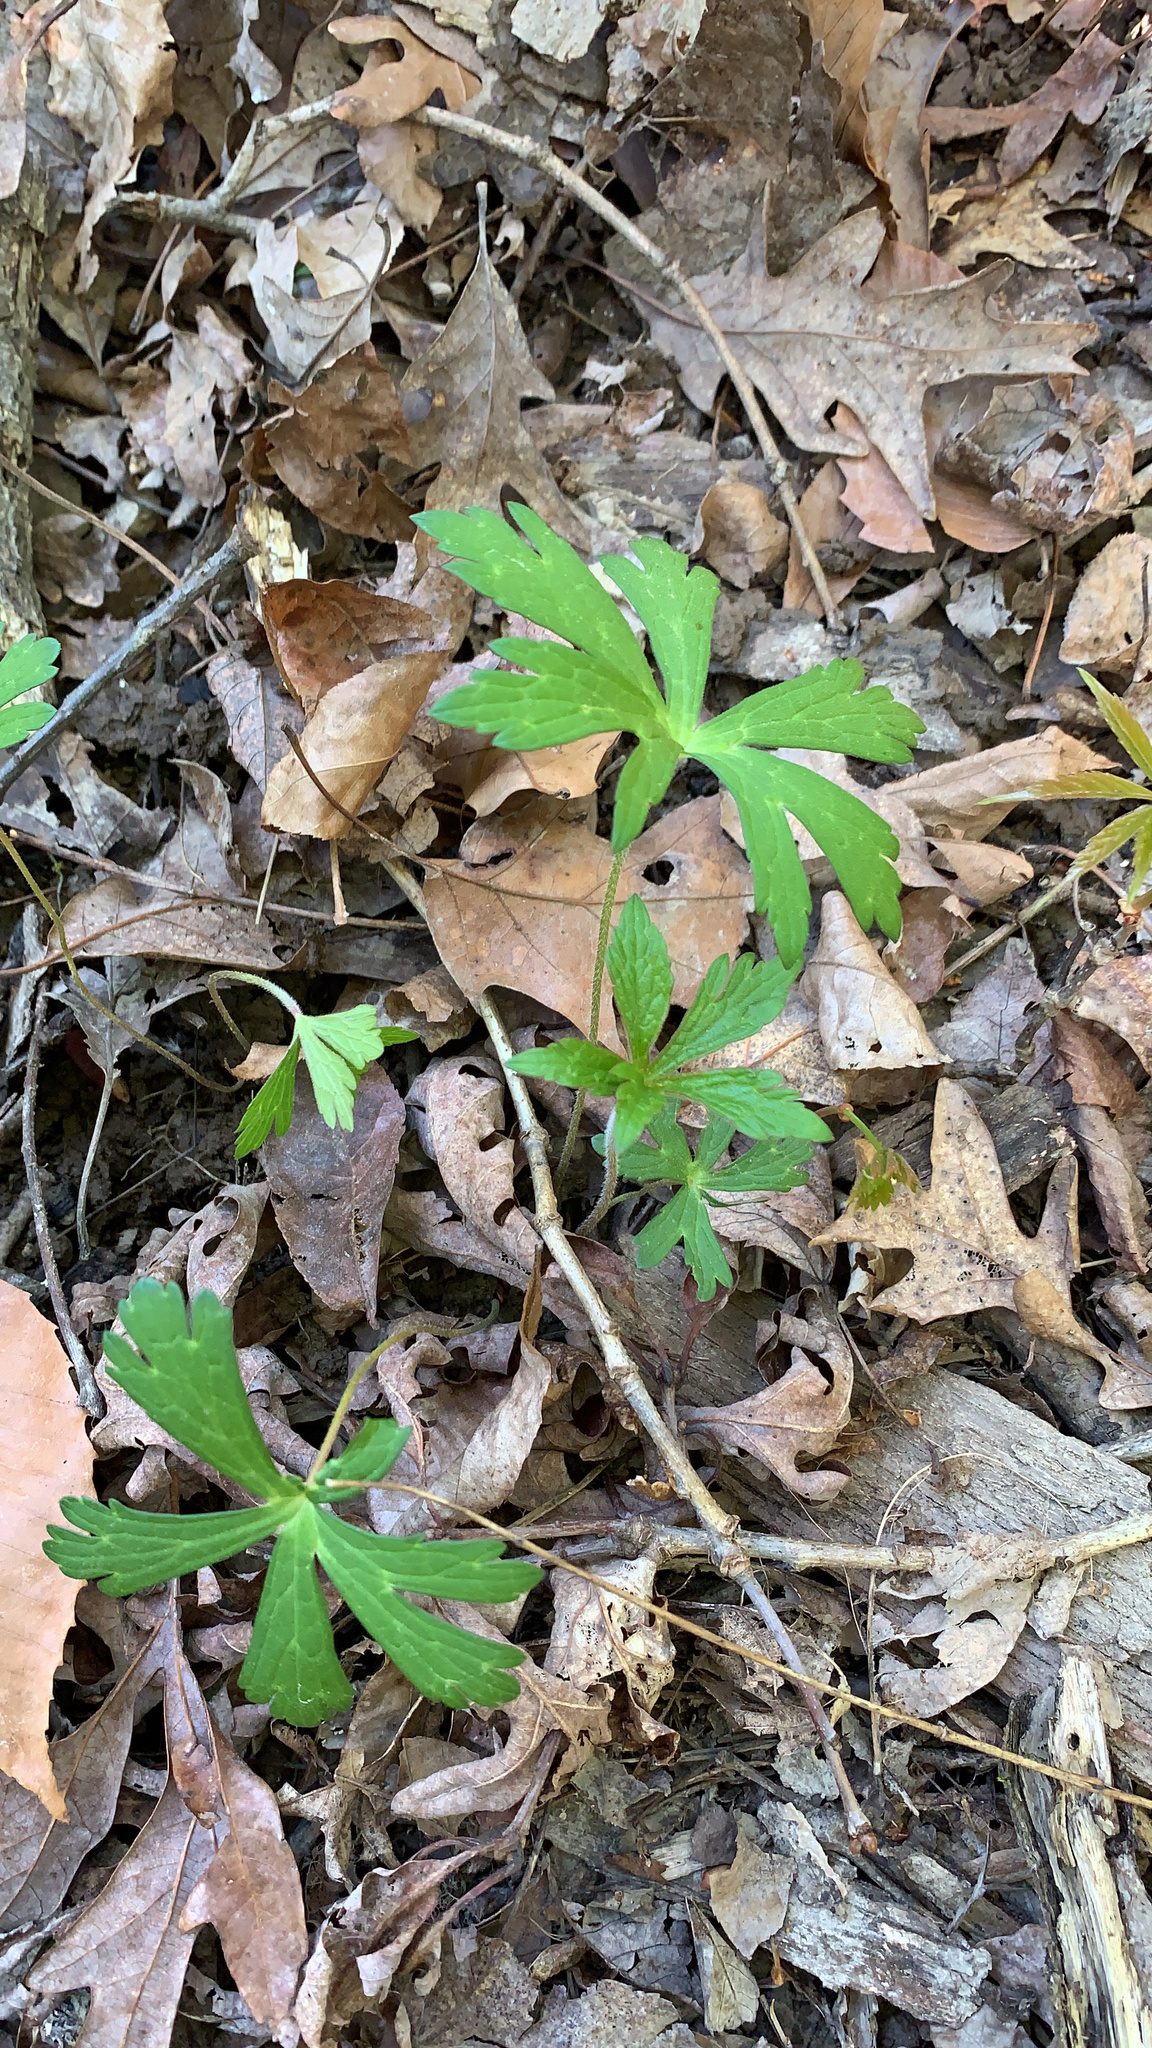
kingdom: Plantae
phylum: Tracheophyta
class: Magnoliopsida
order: Geraniales
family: Geraniaceae
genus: Geranium
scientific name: Geranium maculatum
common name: Spotted geranium
